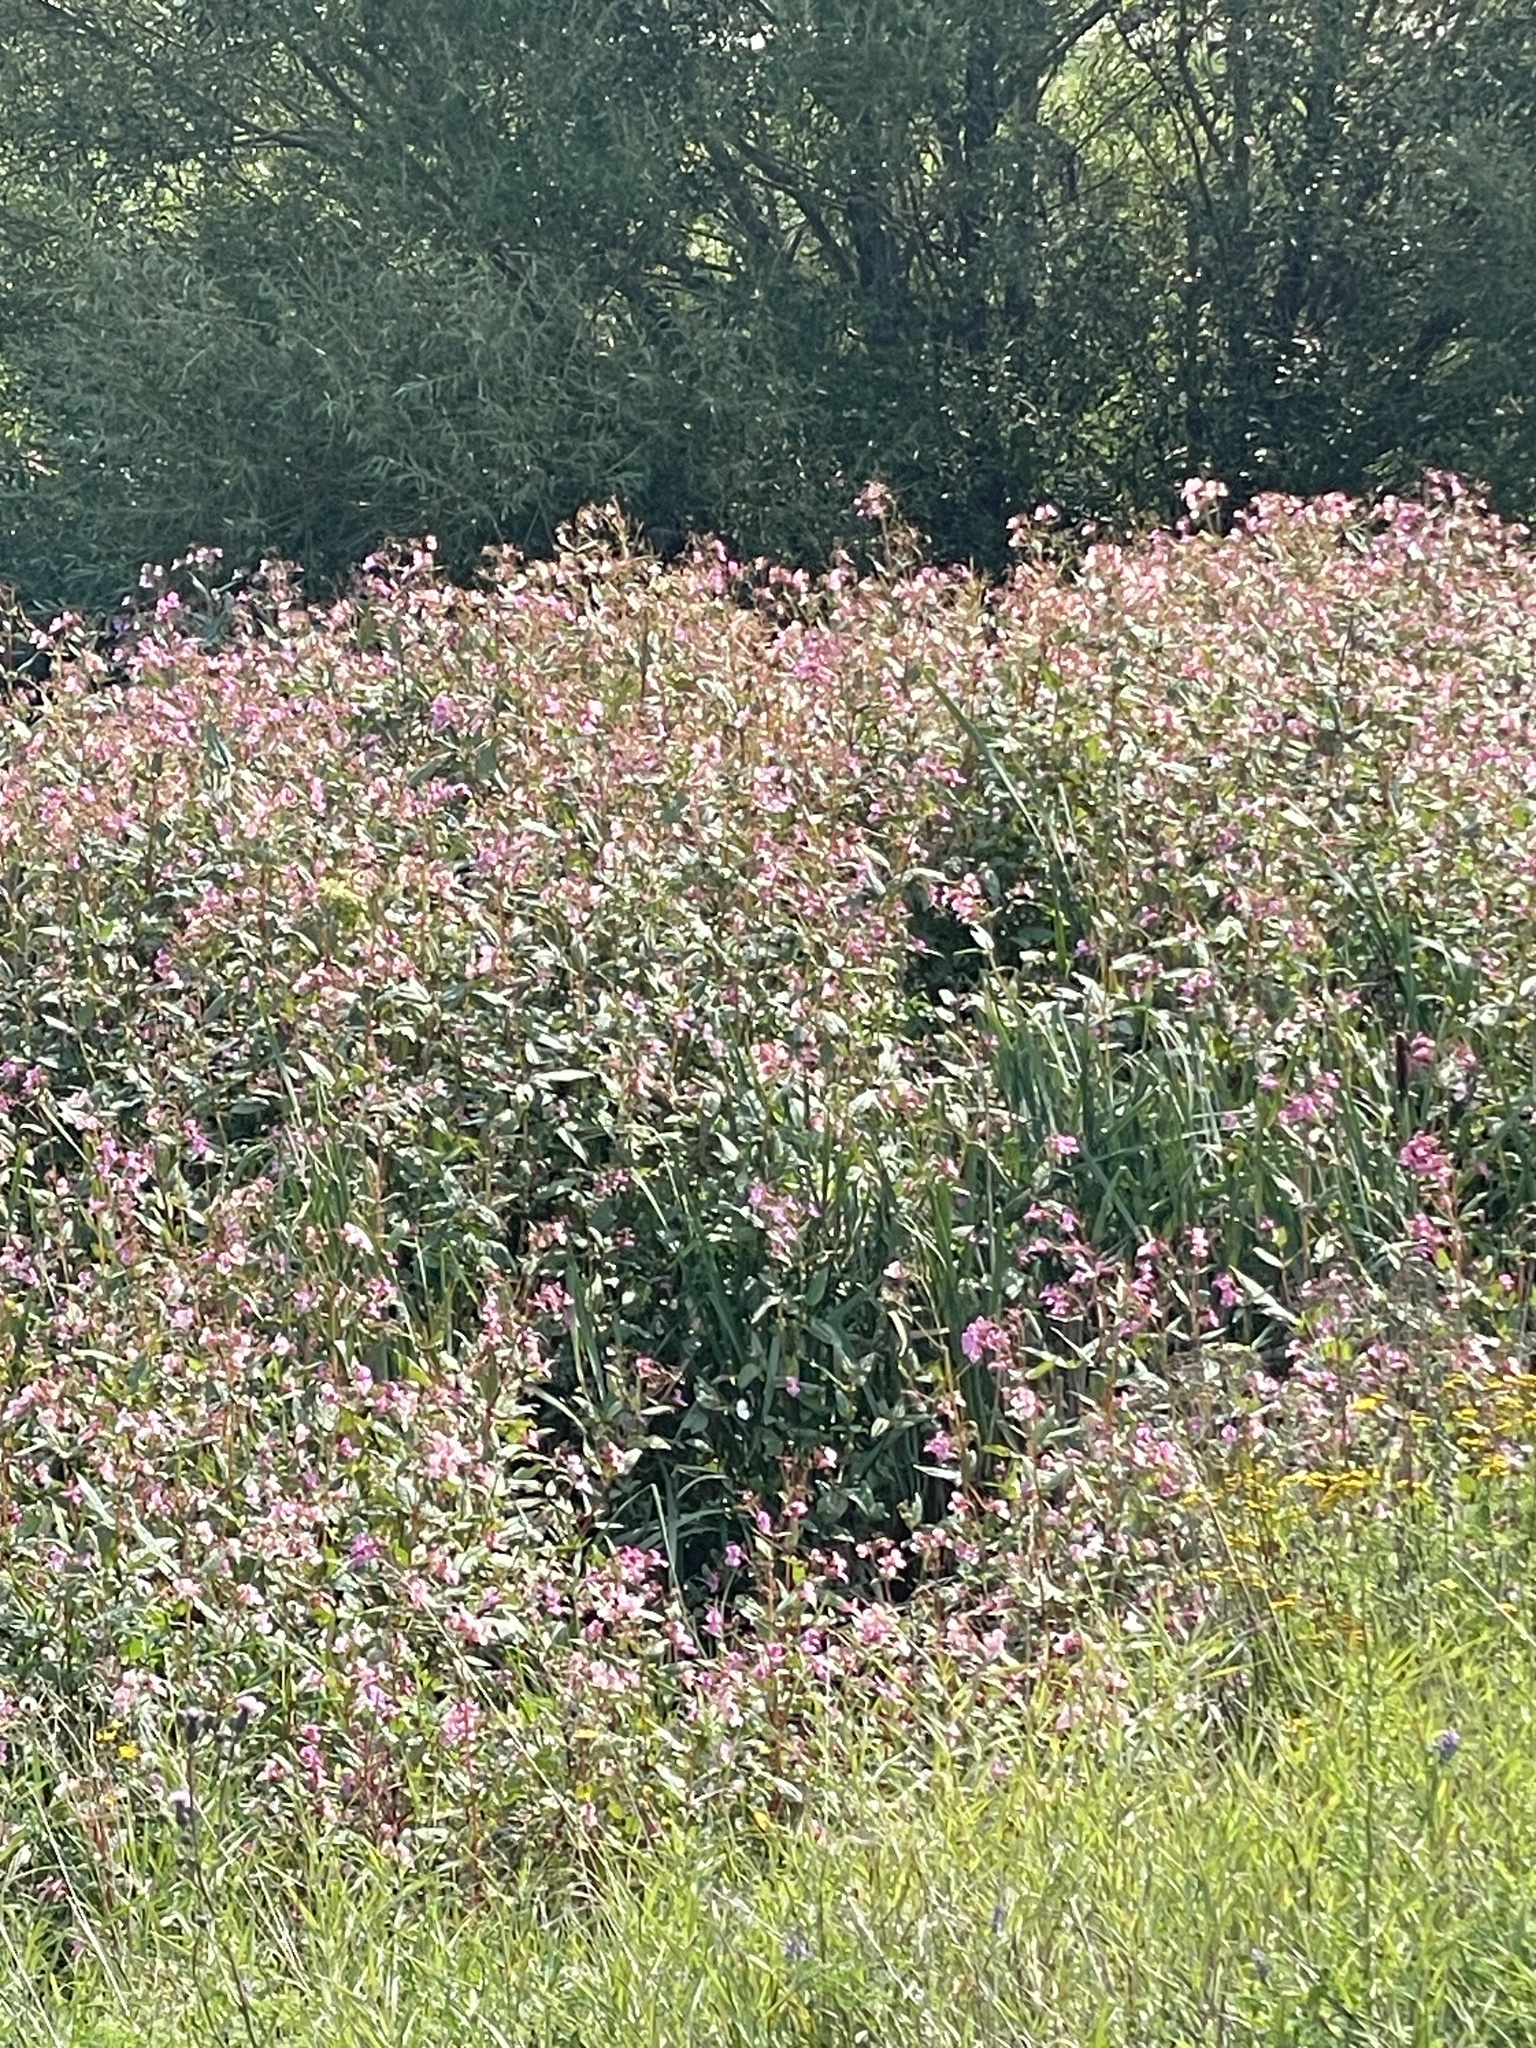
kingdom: Plantae
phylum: Tracheophyta
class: Magnoliopsida
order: Ericales
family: Balsaminaceae
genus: Impatiens
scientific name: Impatiens glandulifera
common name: Himalayan balsam
